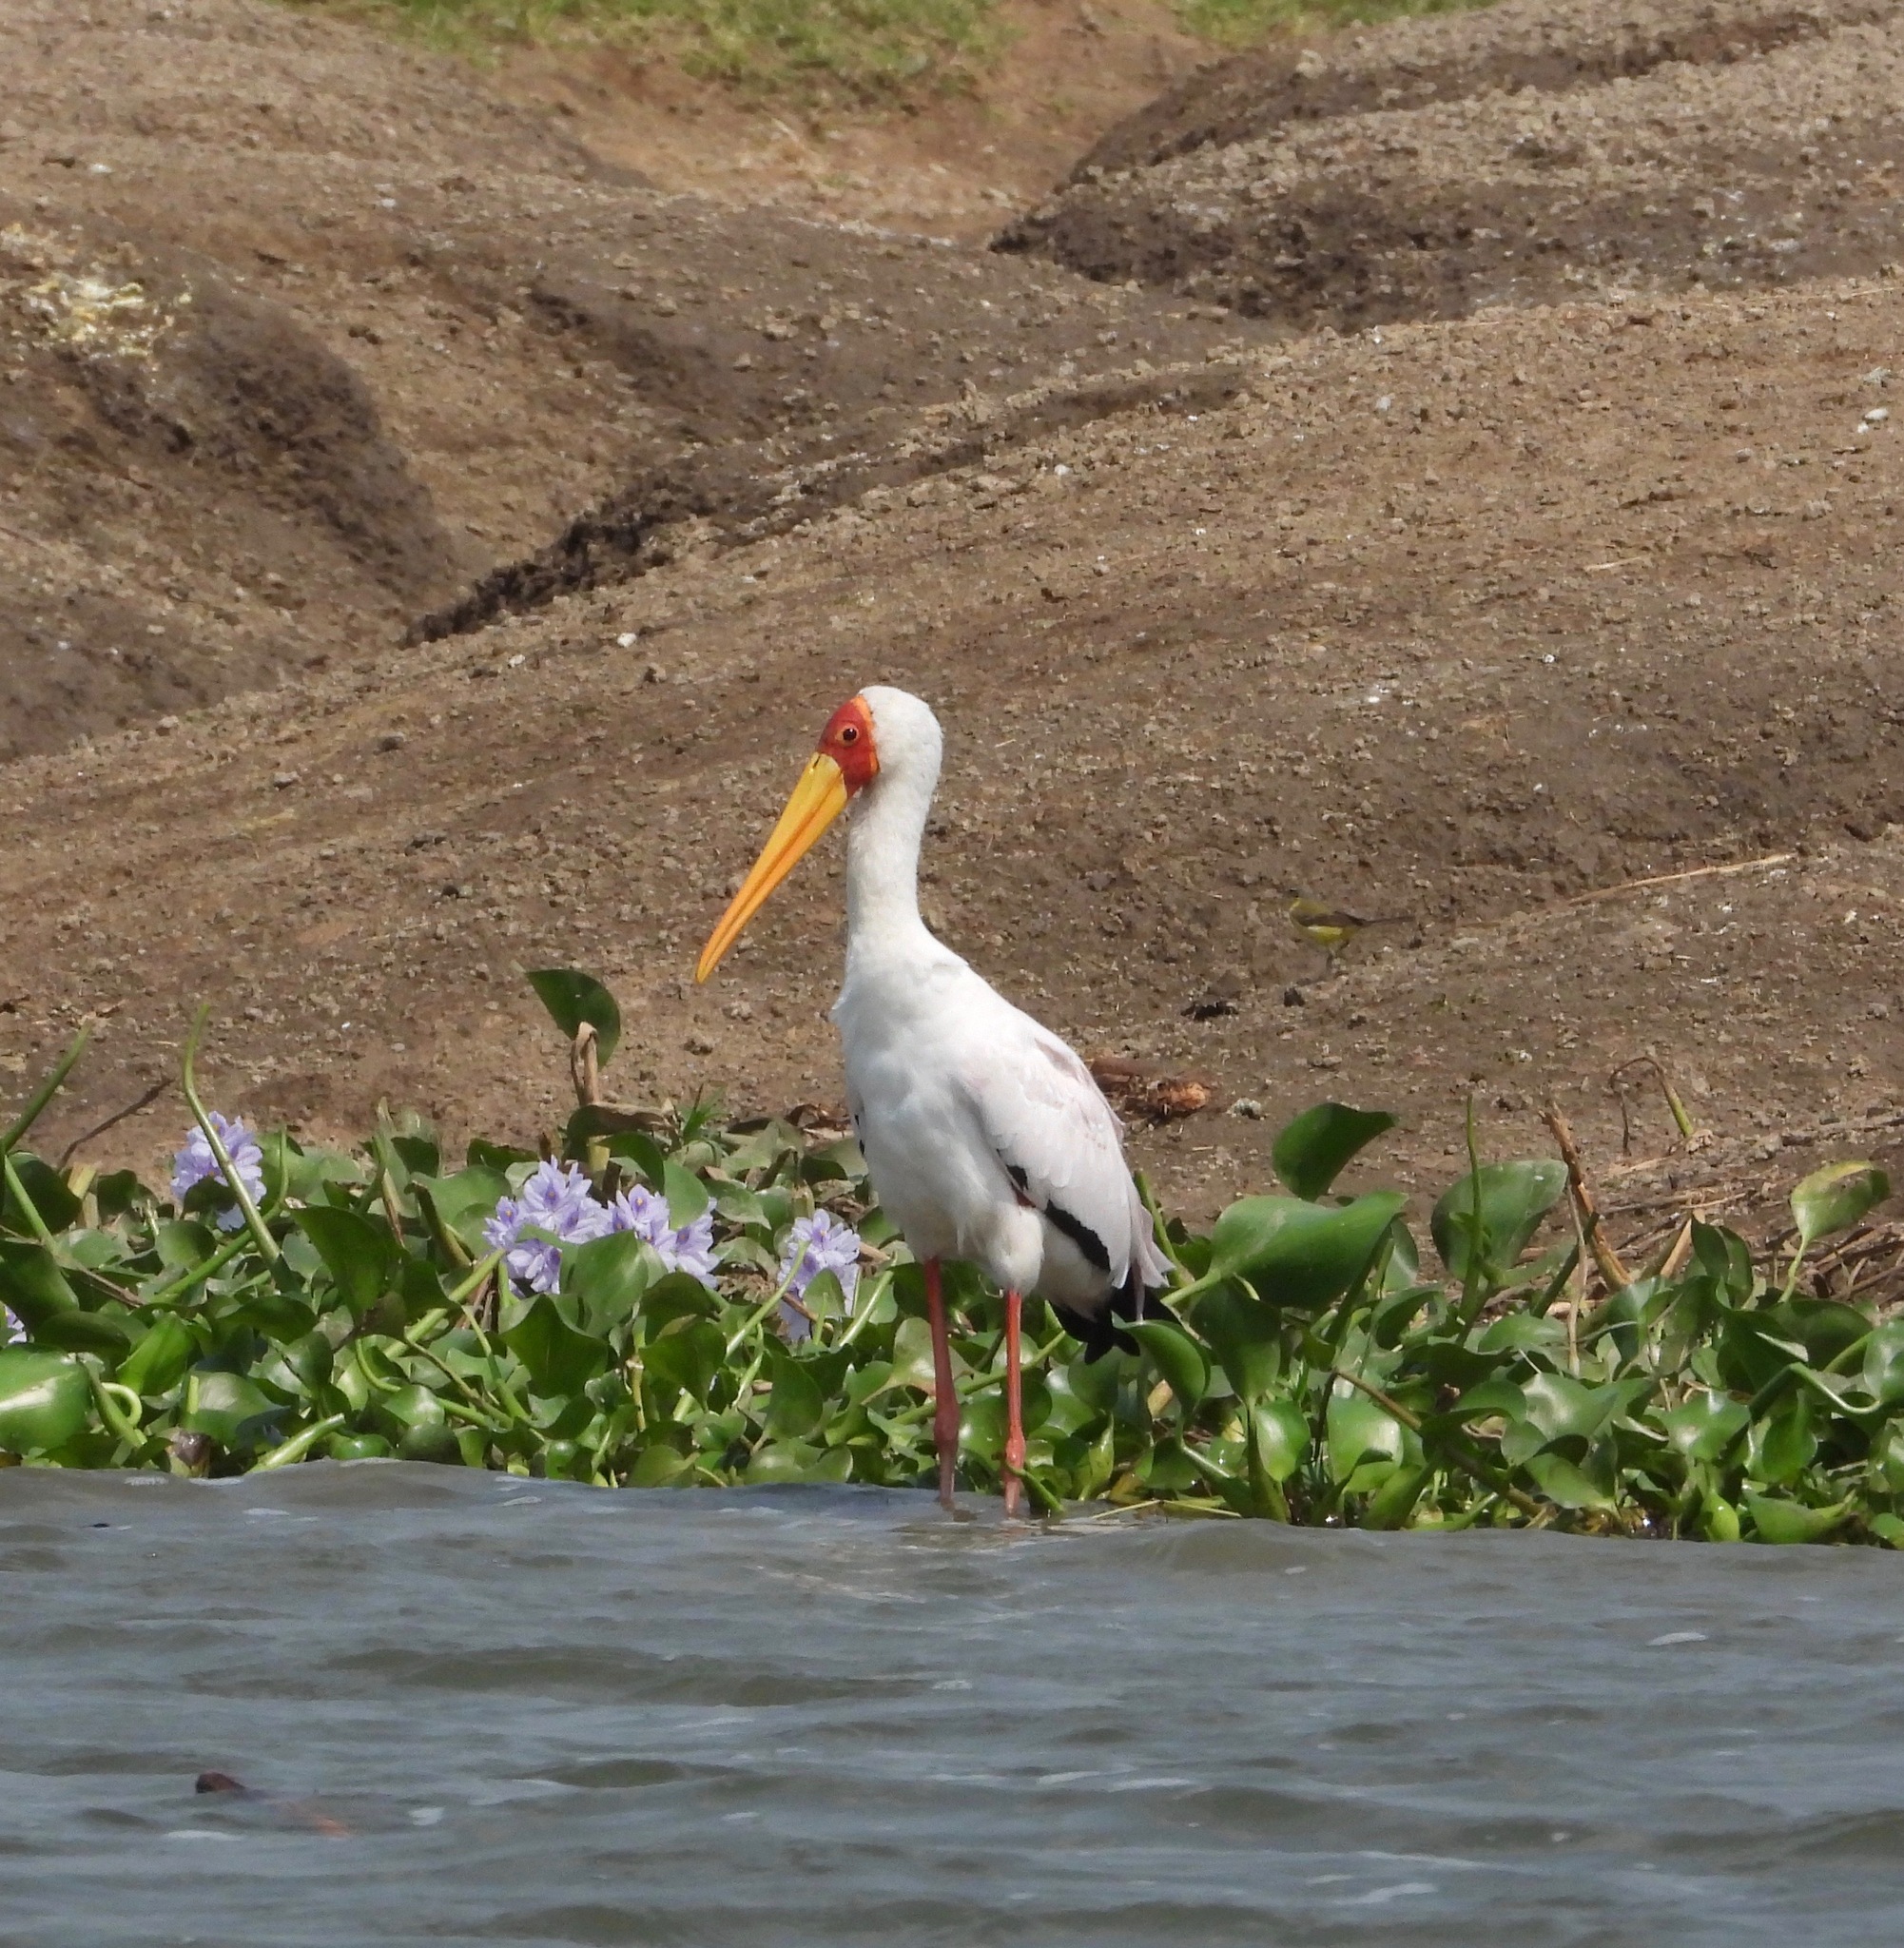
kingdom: Animalia
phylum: Chordata
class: Aves
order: Ciconiiformes
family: Ciconiidae
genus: Mycteria
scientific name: Mycteria ibis
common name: Yellow-billed stork
